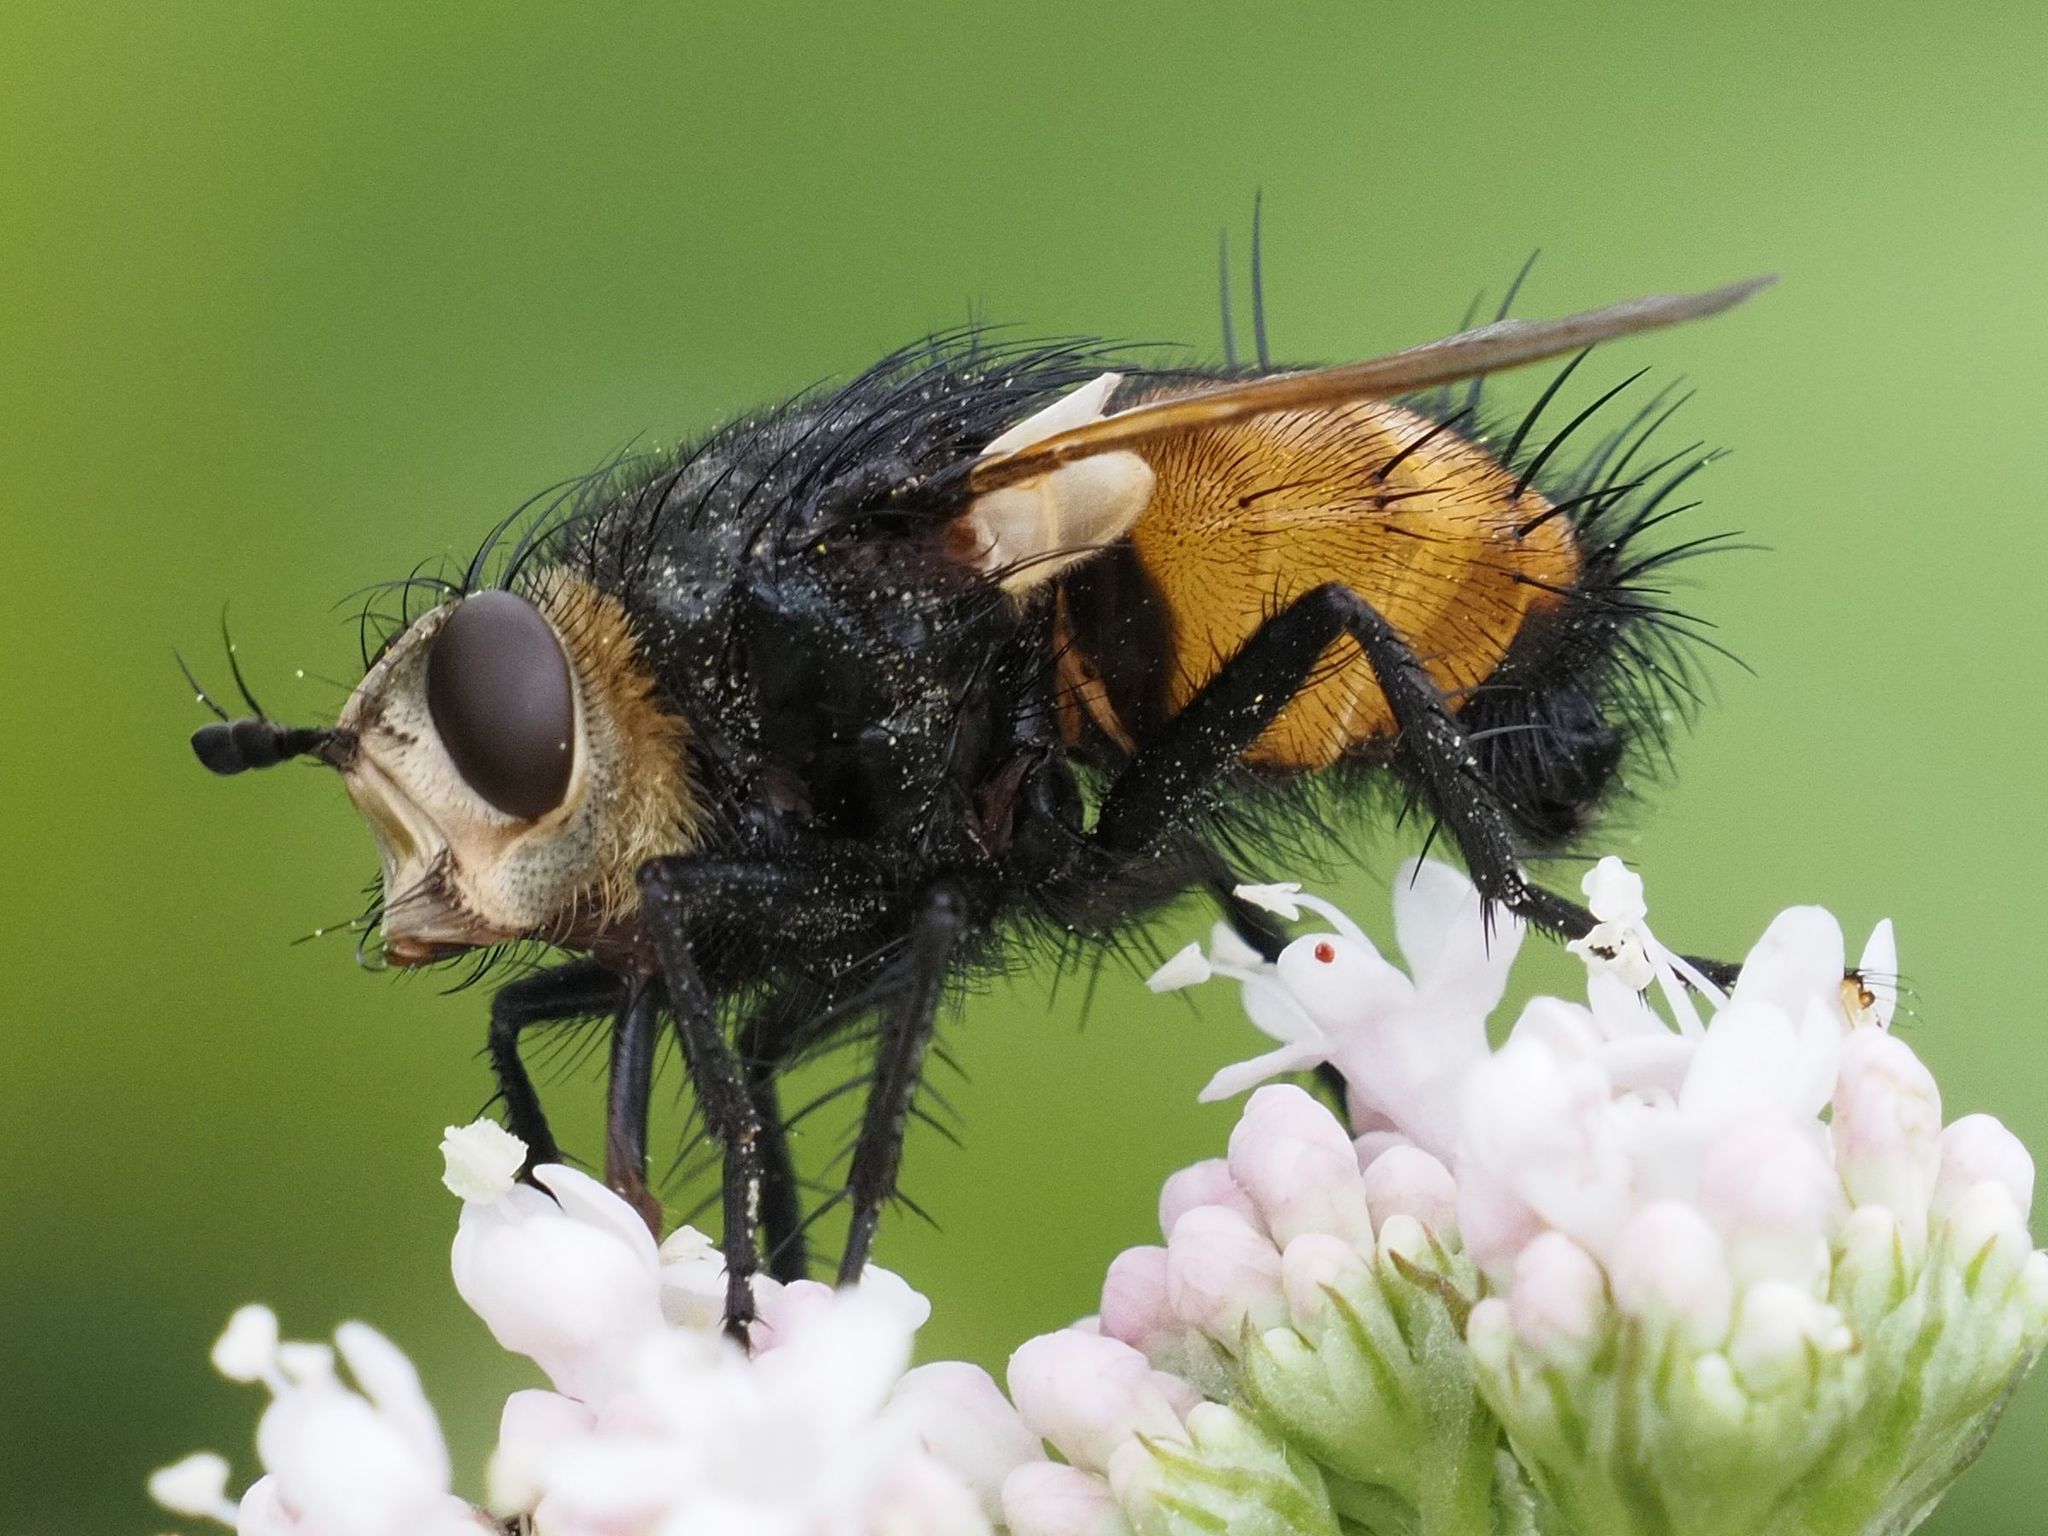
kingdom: Animalia
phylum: Arthropoda
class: Insecta
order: Diptera
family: Tachinidae
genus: Nowickia
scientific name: Nowickia ferox
